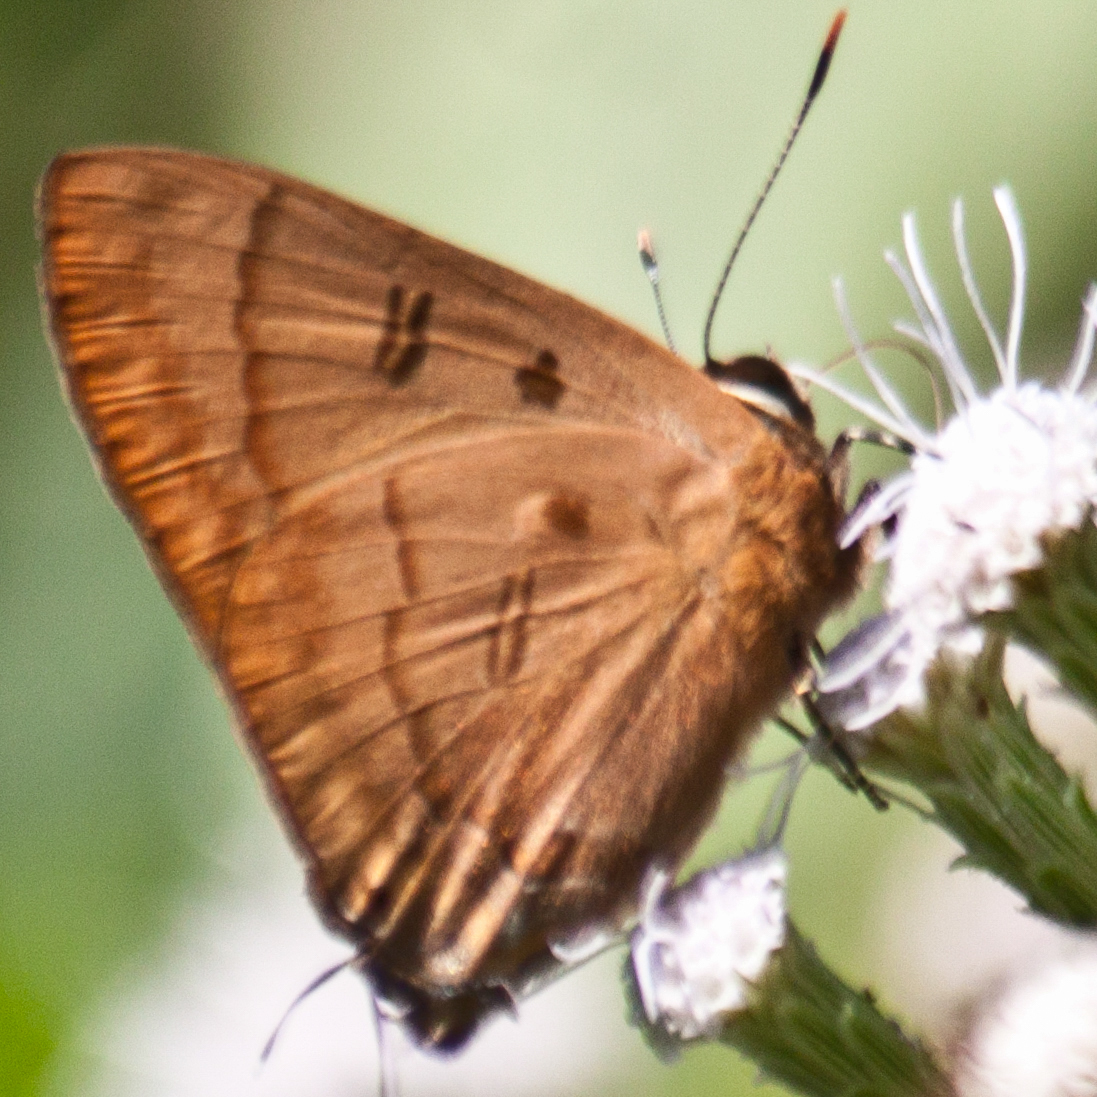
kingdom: Animalia
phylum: Arthropoda
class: Insecta
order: Lepidoptera
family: Lycaenidae
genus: Rapala
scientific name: Rapala pheretima
